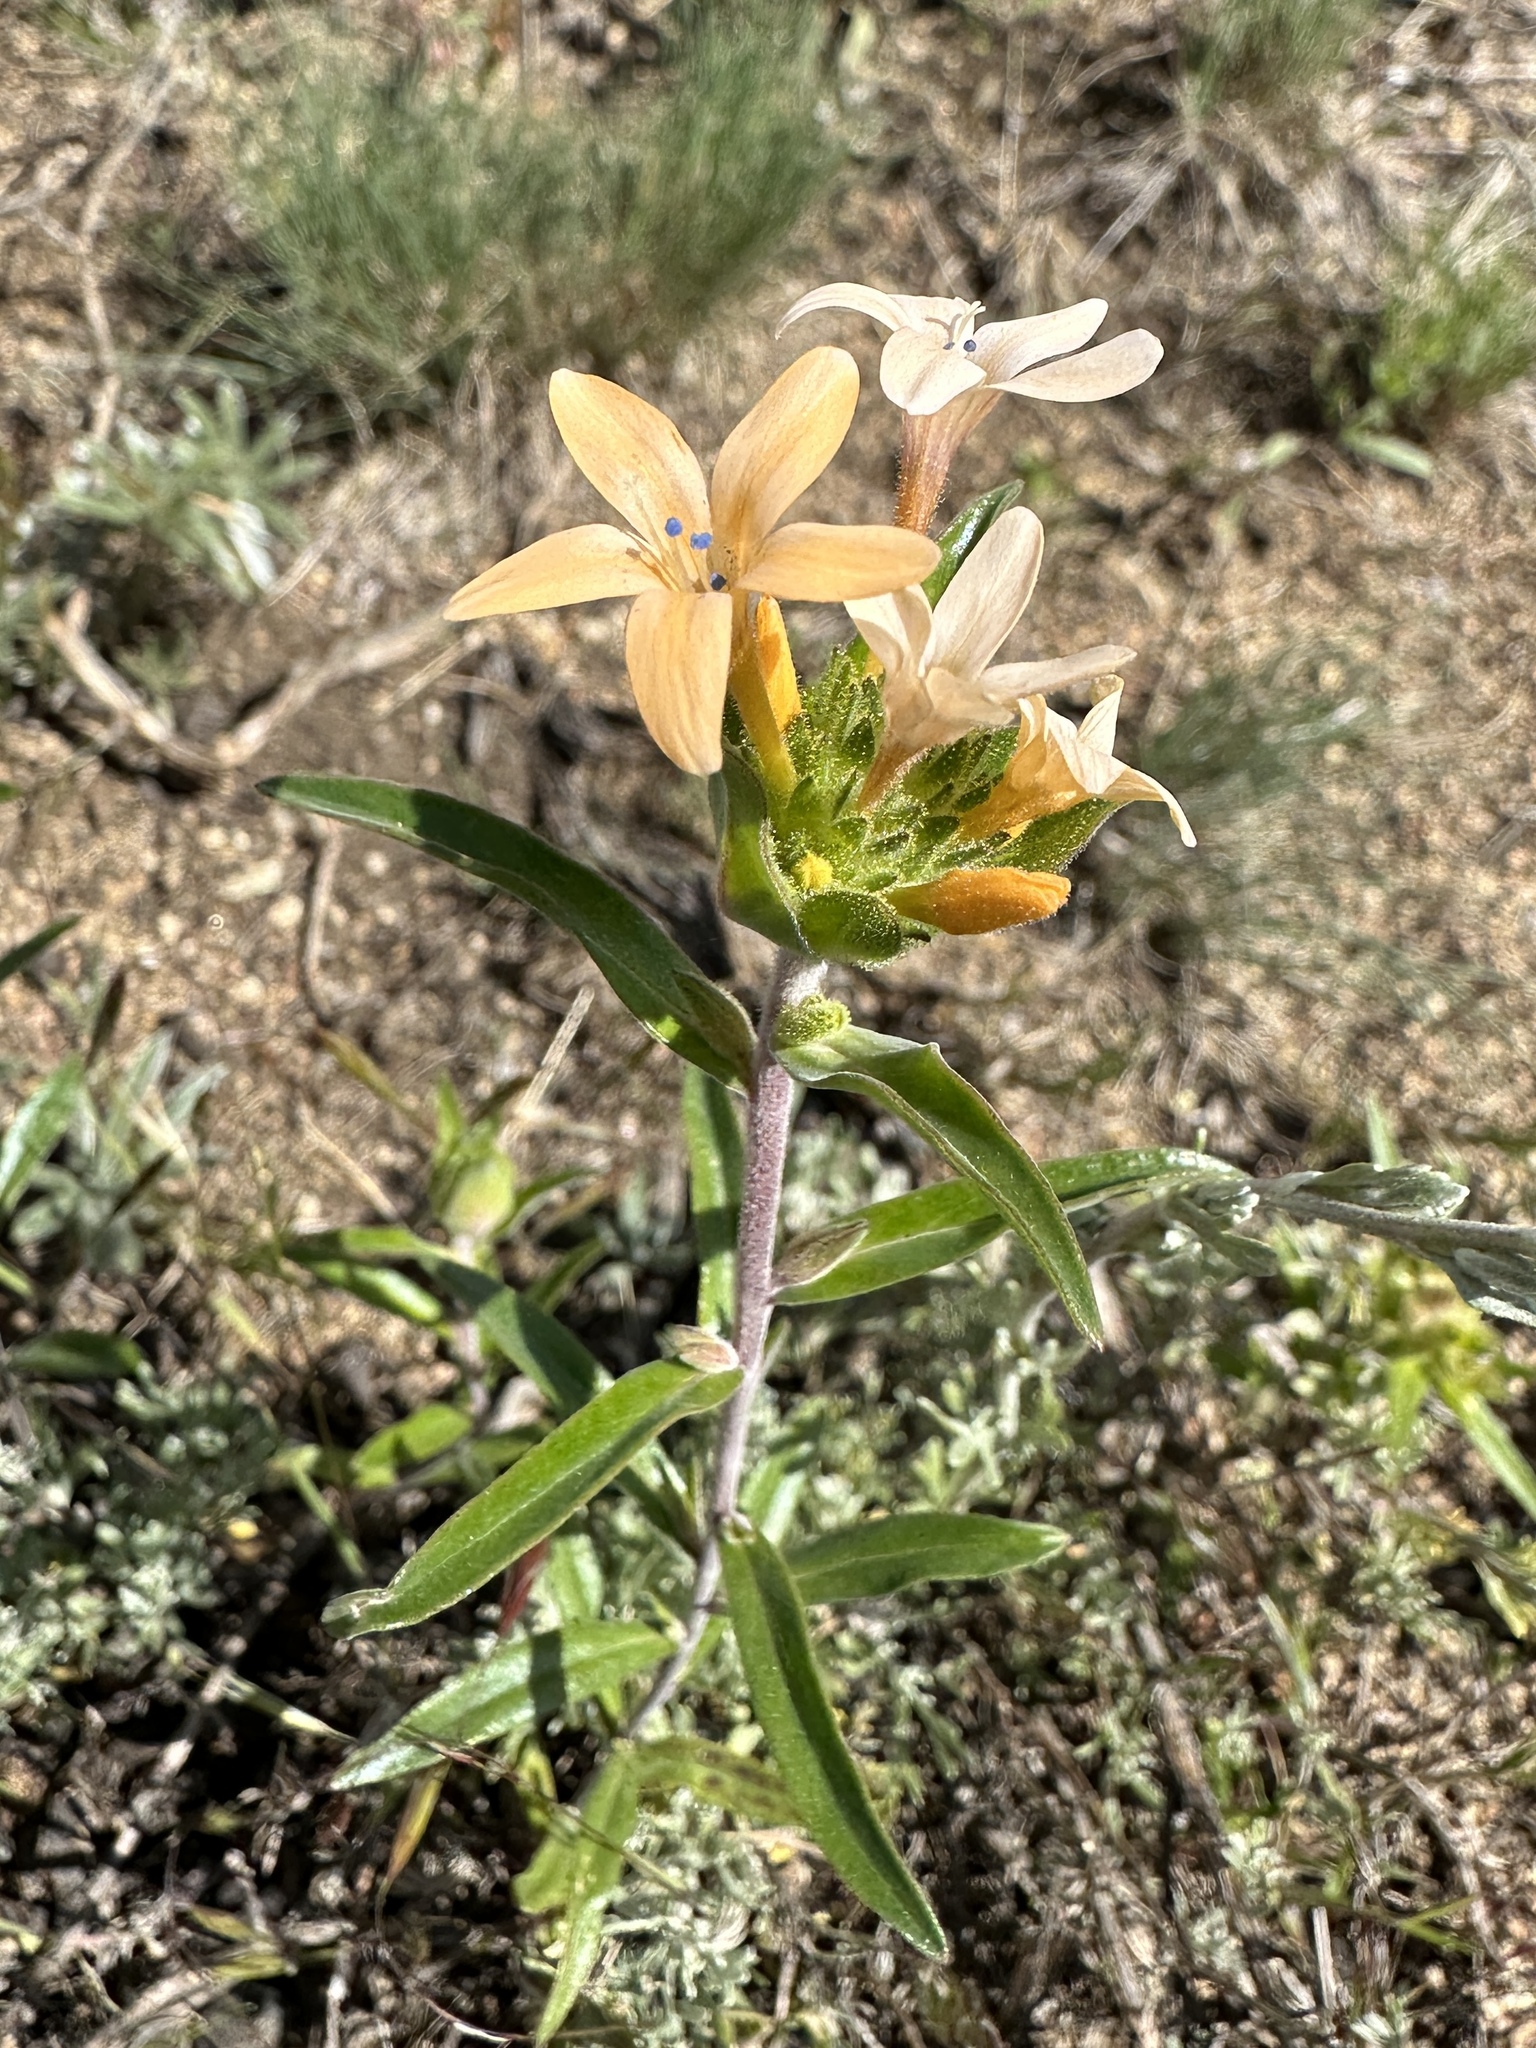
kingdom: Plantae
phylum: Tracheophyta
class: Magnoliopsida
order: Ericales
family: Polemoniaceae
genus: Collomia
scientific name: Collomia grandiflora
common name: California strawflower
